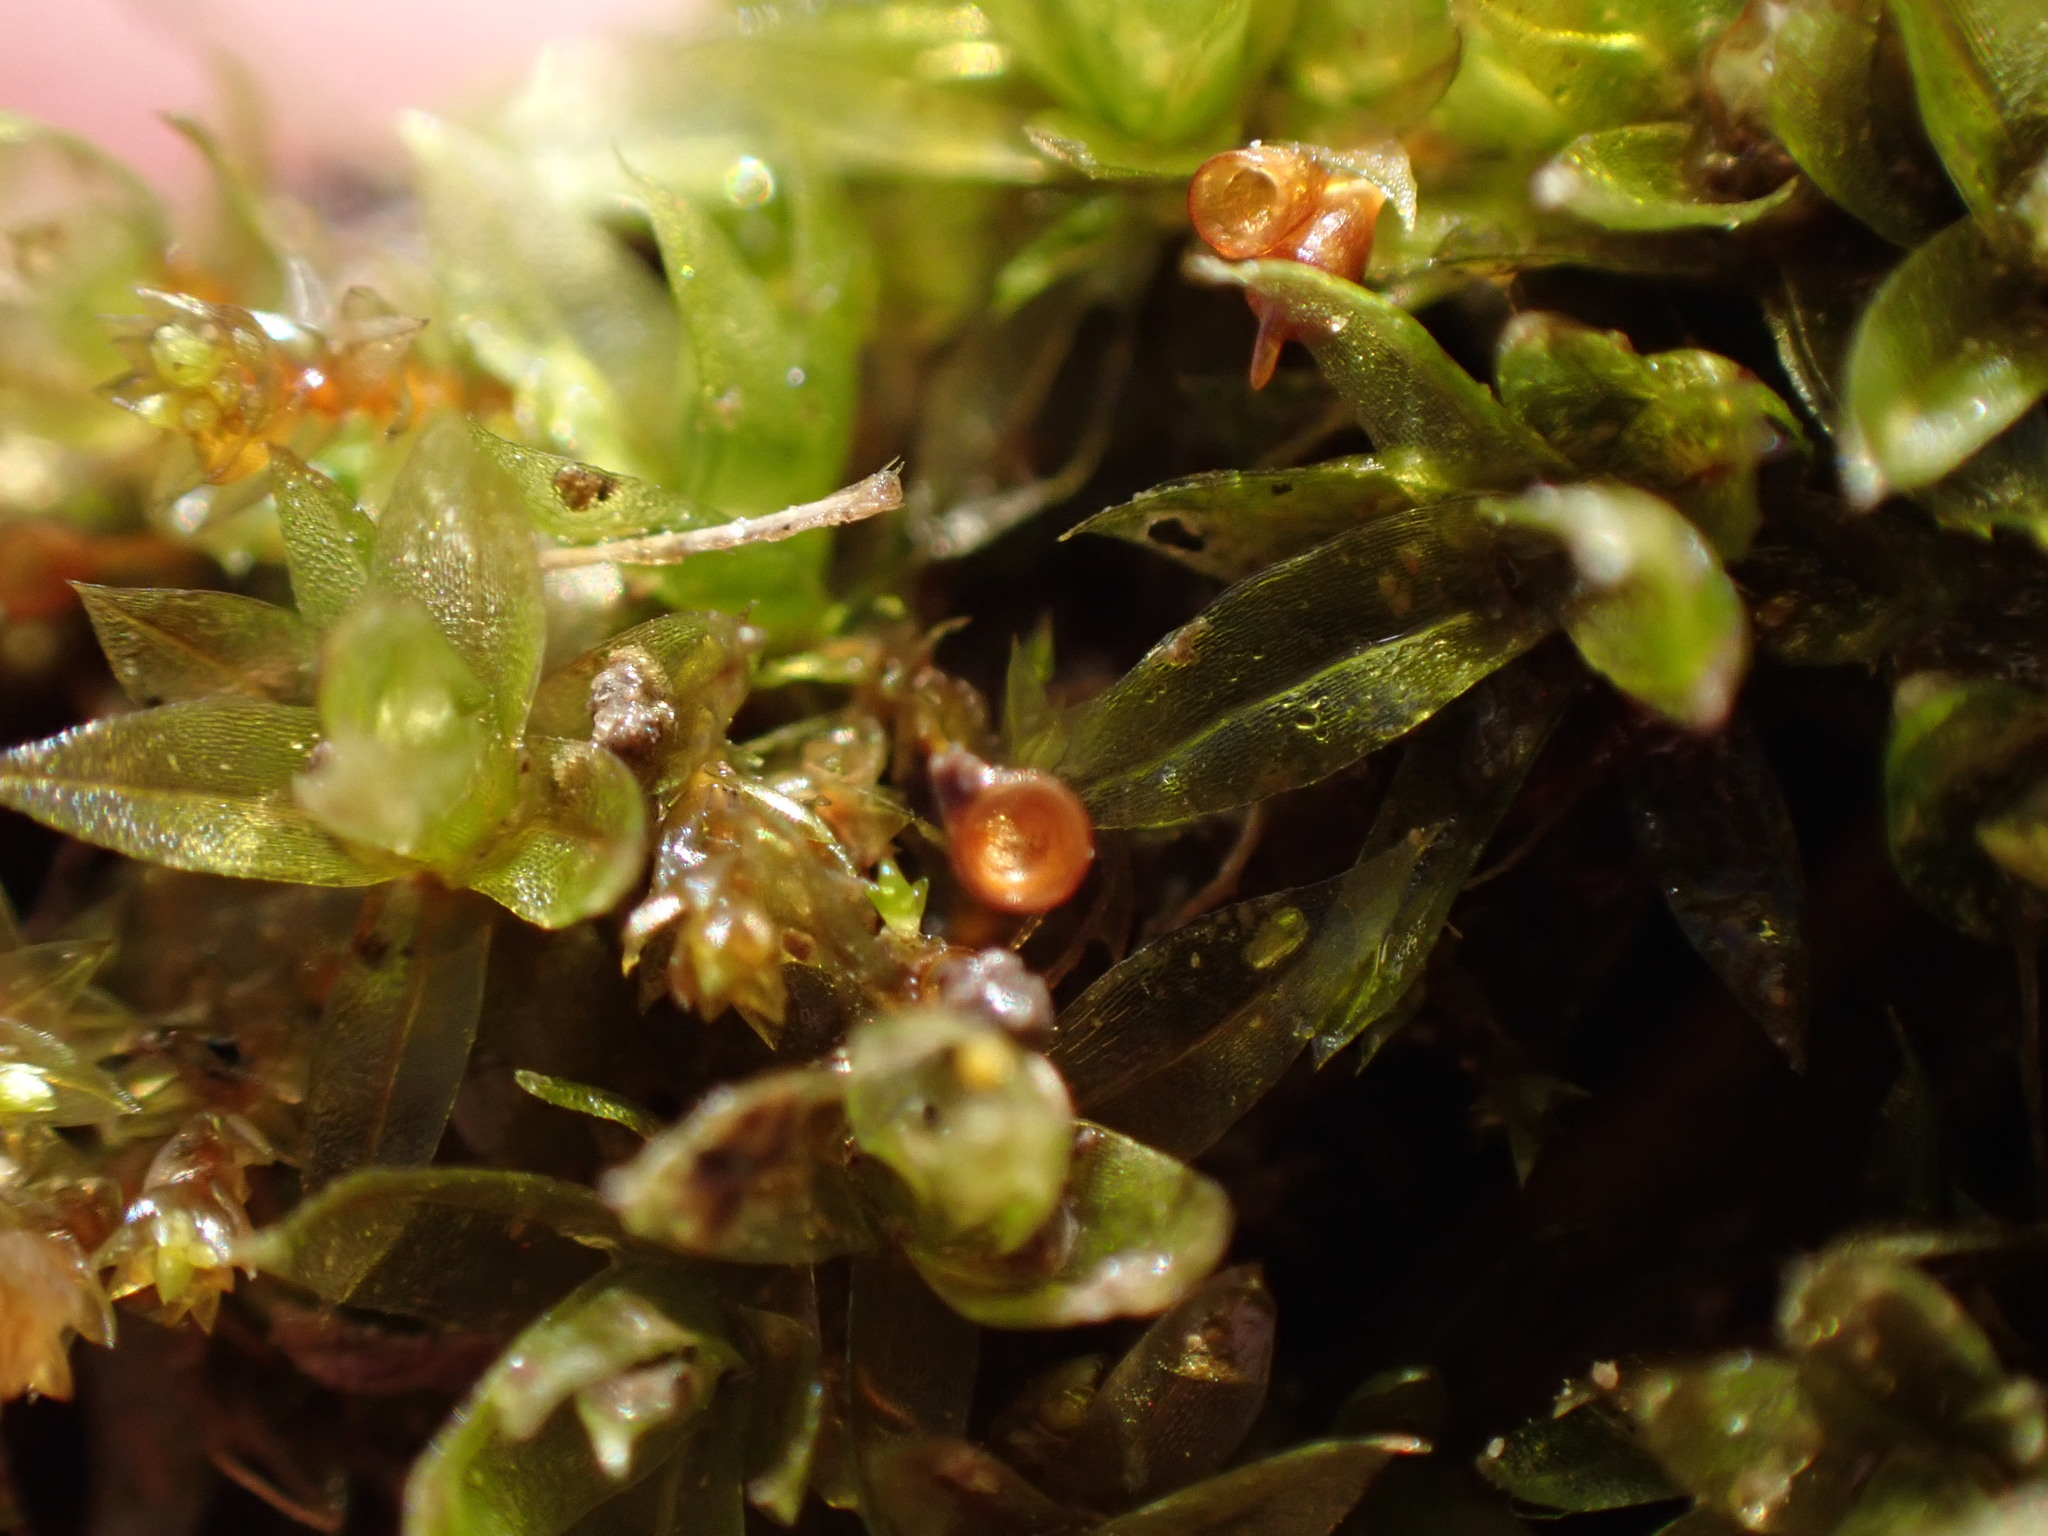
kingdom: Plantae
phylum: Bryophyta
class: Bryopsida
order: Pottiales
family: Pottiaceae
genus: Tortula
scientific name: Tortula truncata
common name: Truncated screw moss
